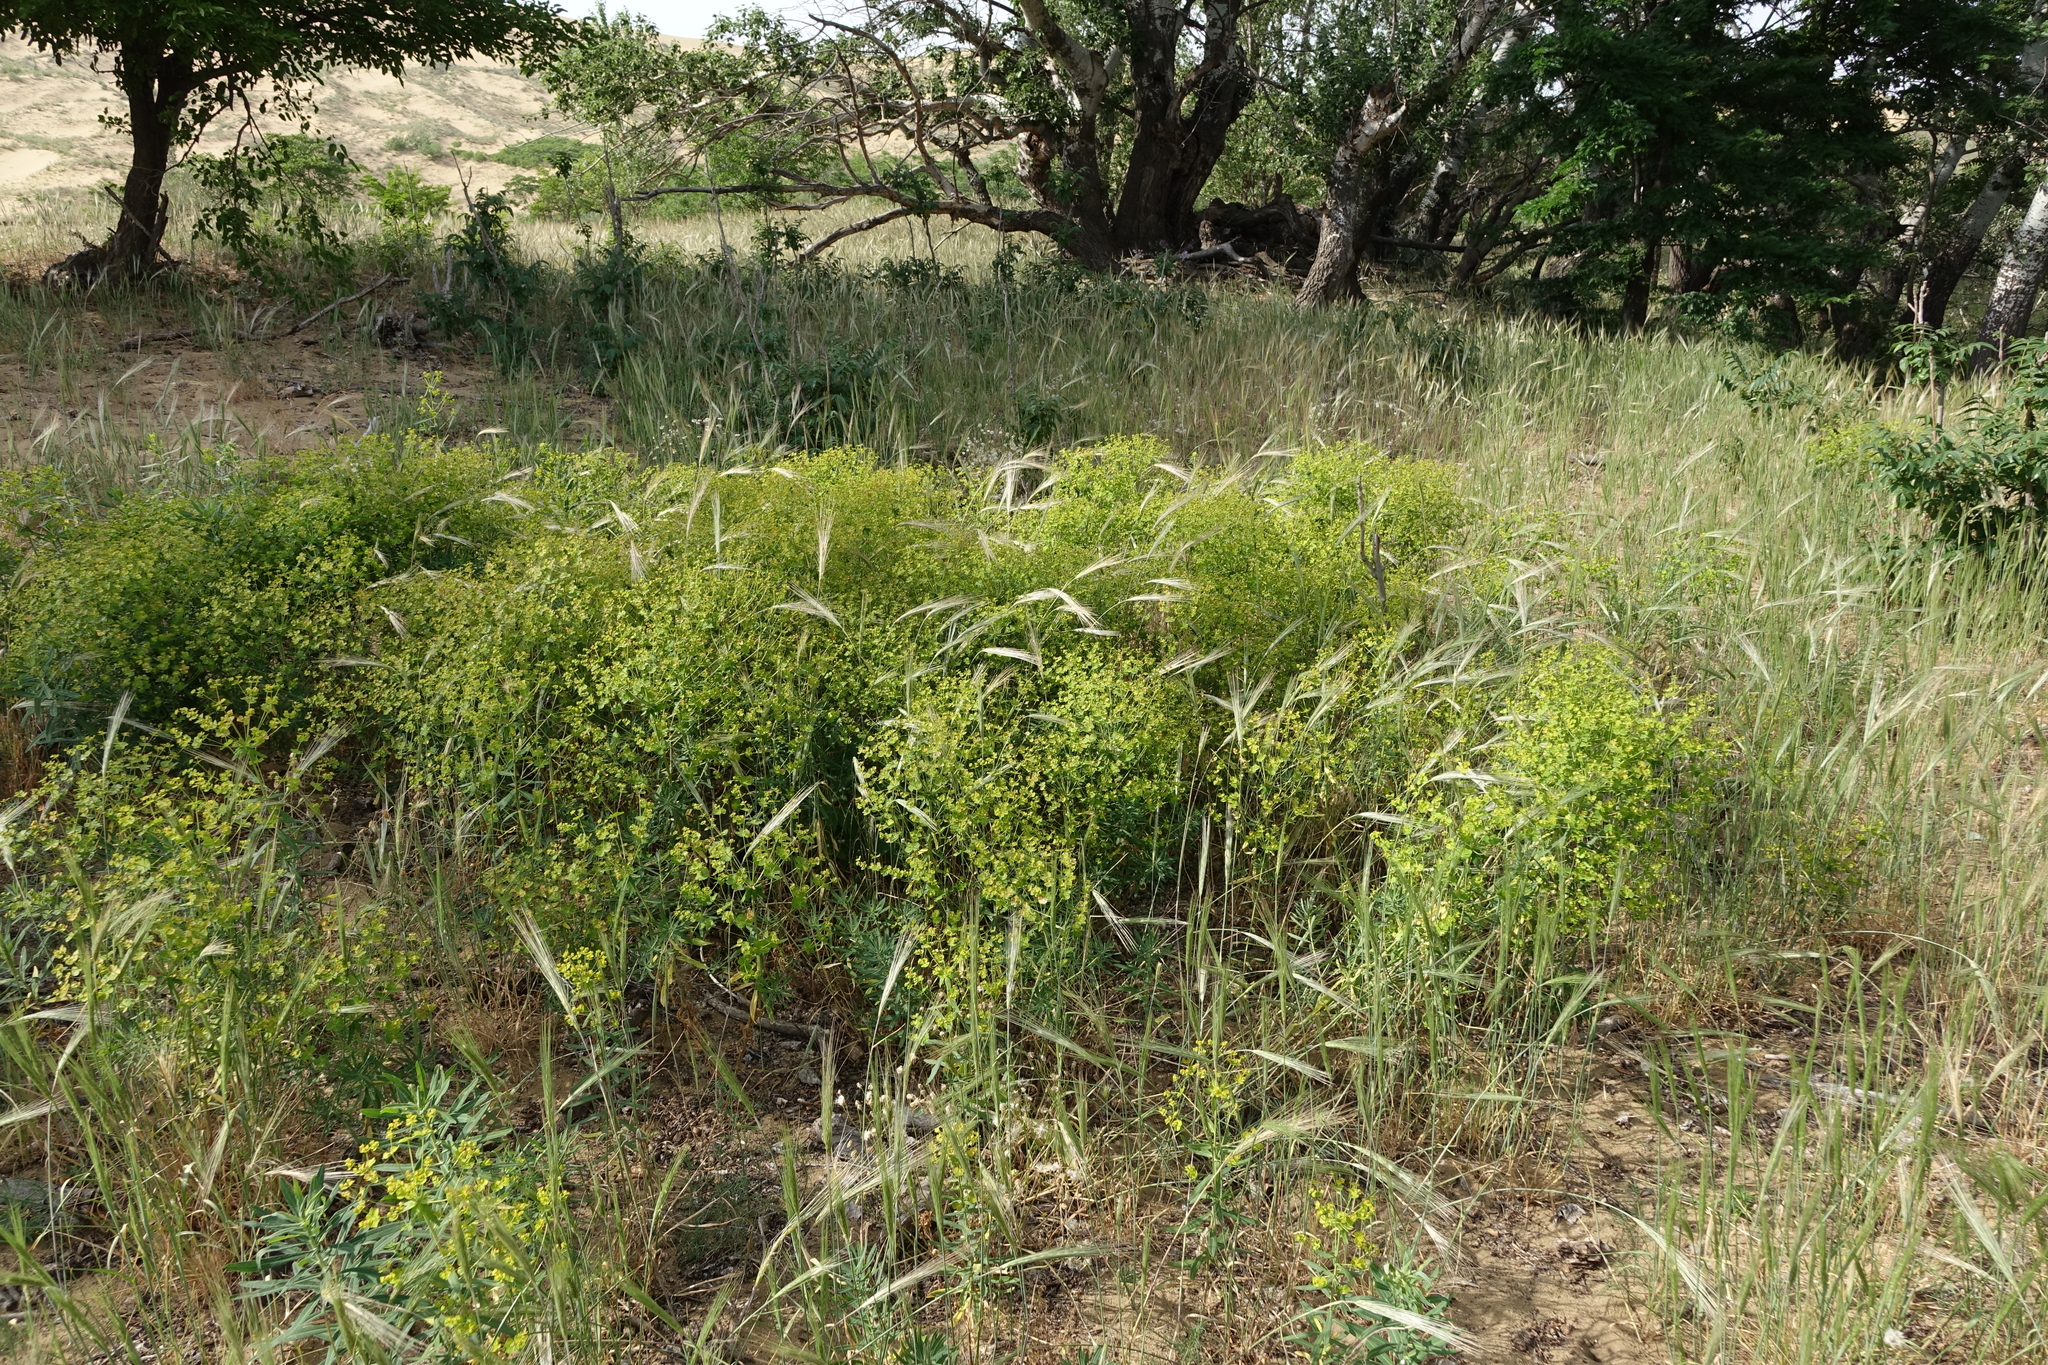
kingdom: Plantae
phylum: Tracheophyta
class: Magnoliopsida
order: Malpighiales
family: Euphorbiaceae
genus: Euphorbia
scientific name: Euphorbia seguieriana
